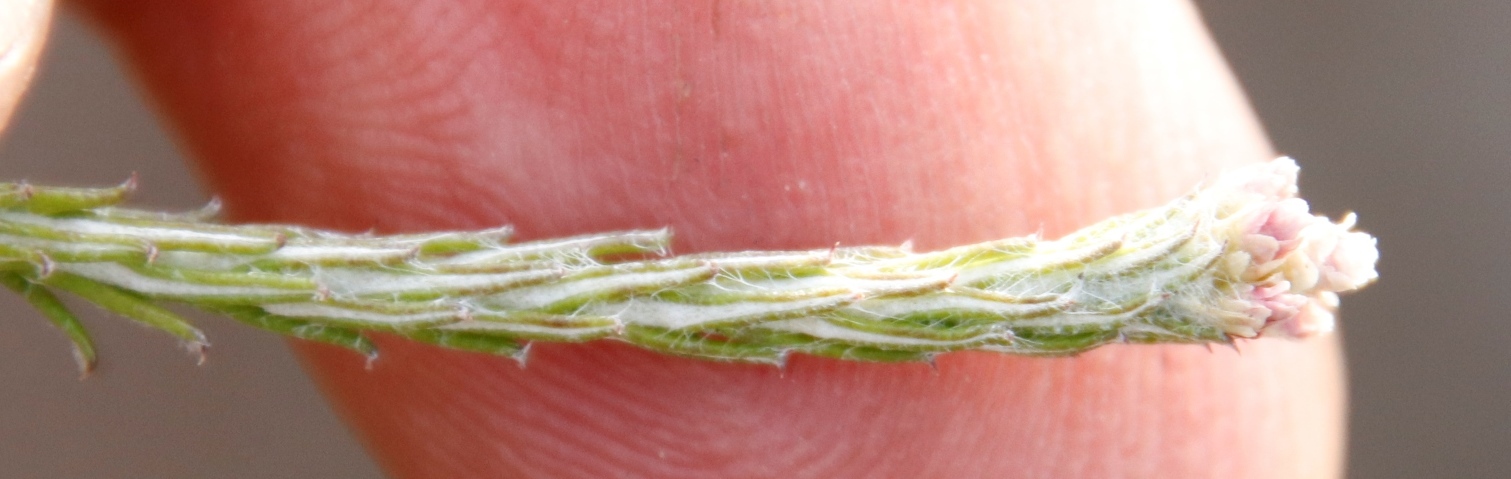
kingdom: Plantae
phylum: Tracheophyta
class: Magnoliopsida
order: Asterales
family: Asteraceae
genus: Helichrysum
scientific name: Helichrysum teretifolium
